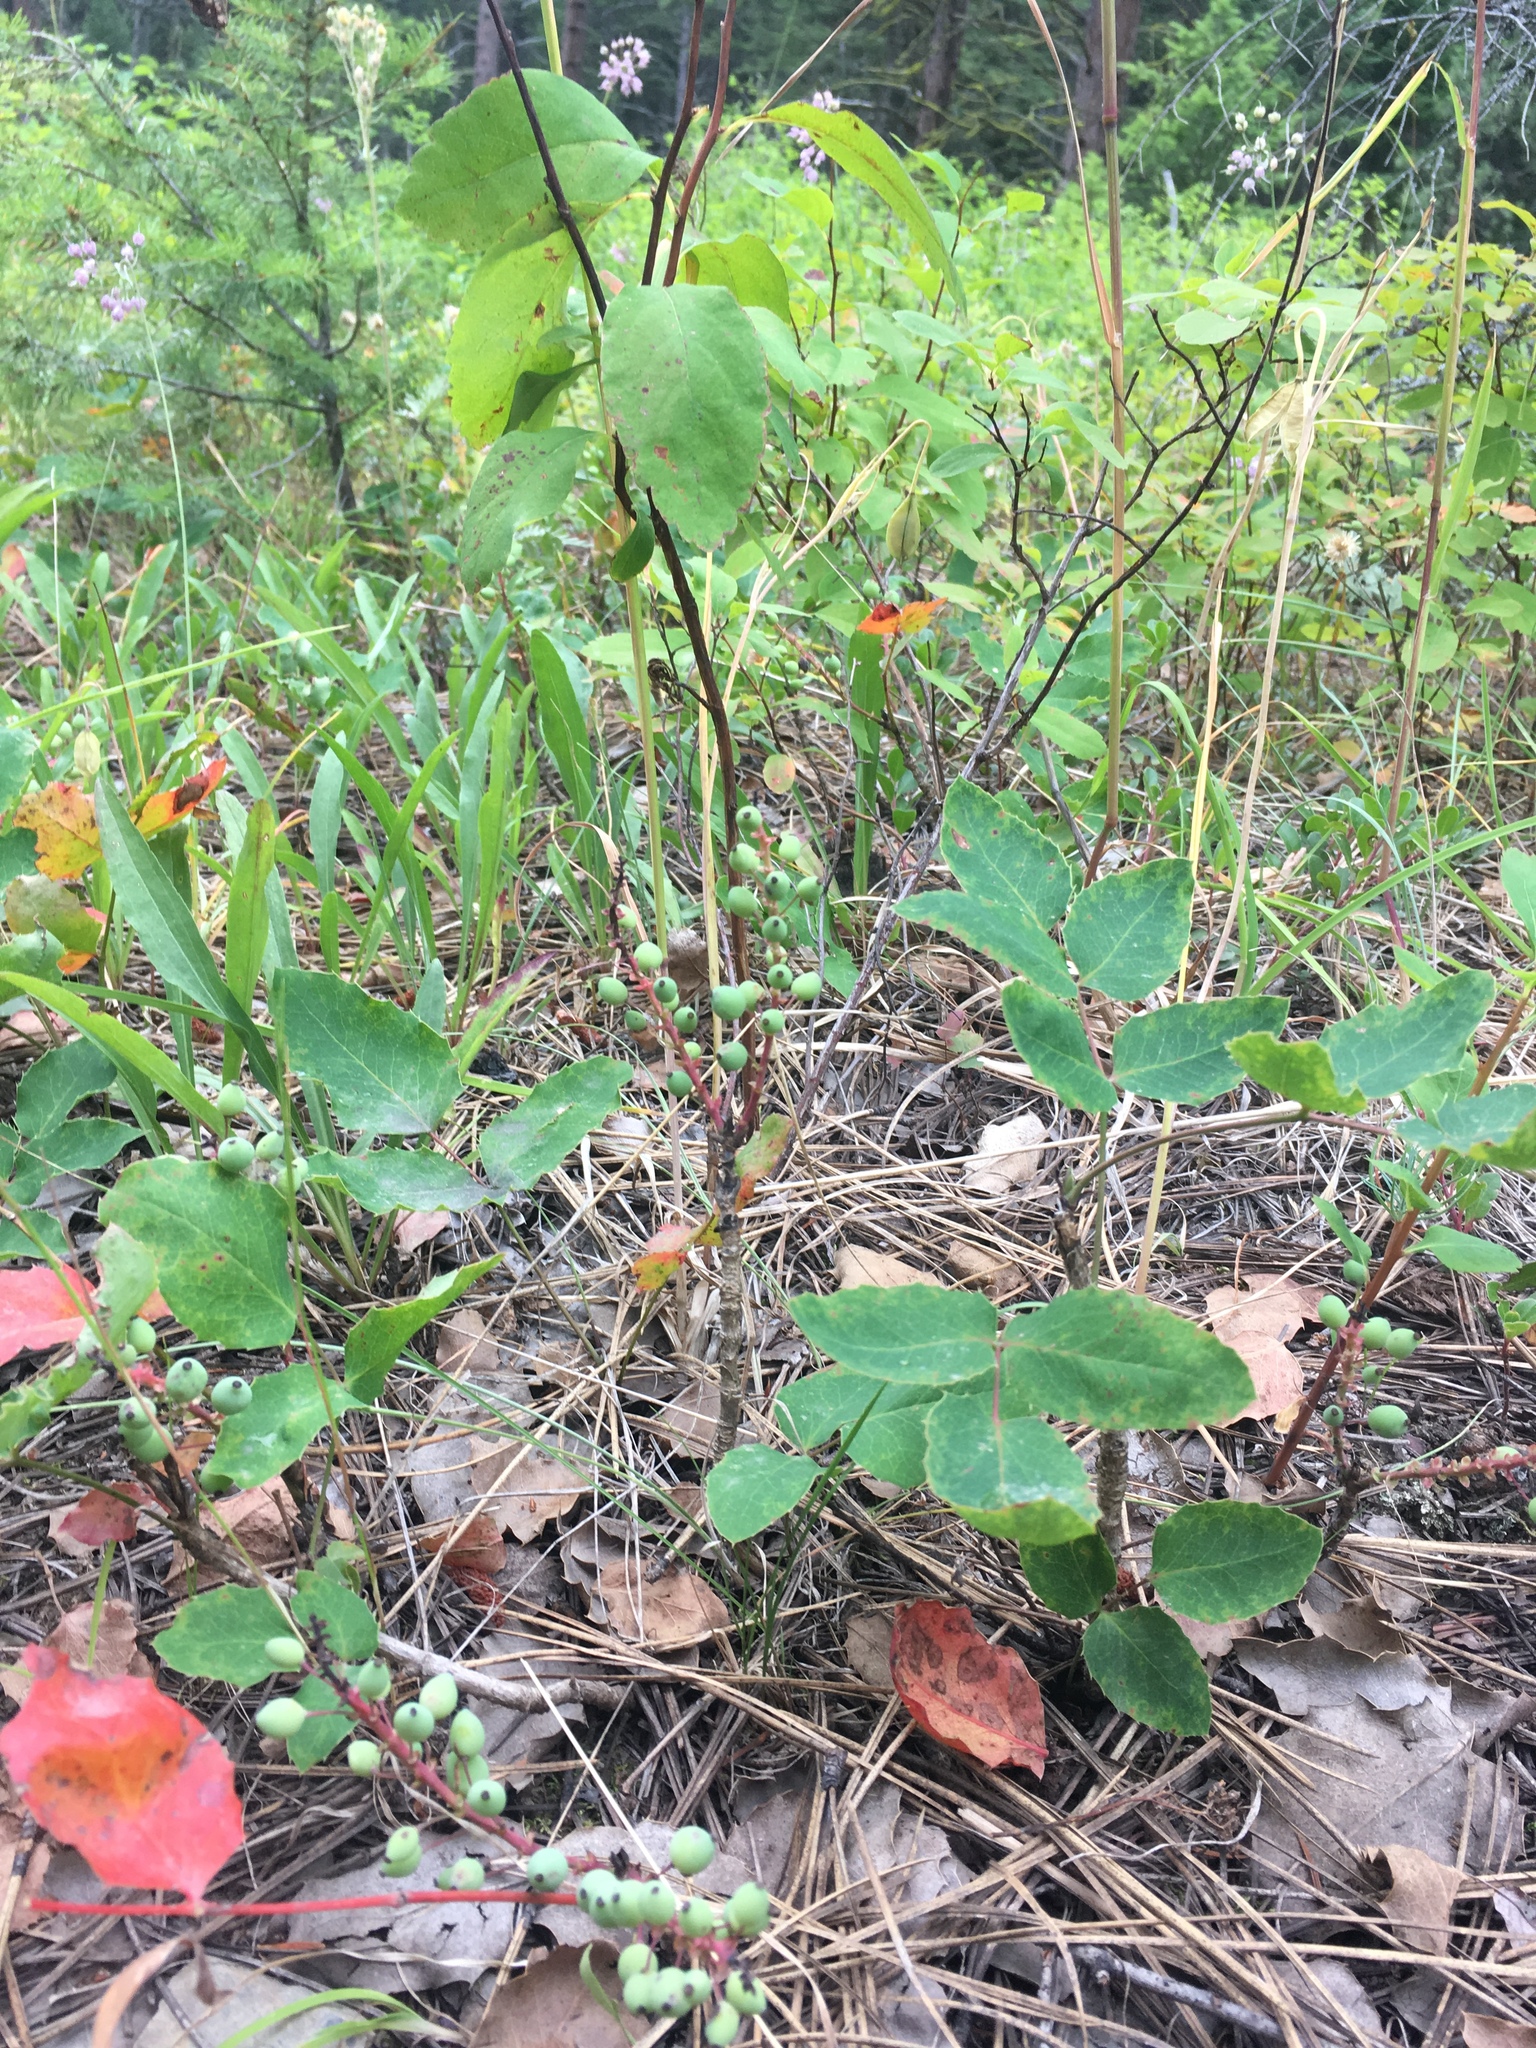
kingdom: Plantae
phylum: Tracheophyta
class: Magnoliopsida
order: Ranunculales
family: Berberidaceae
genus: Mahonia
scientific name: Mahonia repens
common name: Creeping oregon-grape
